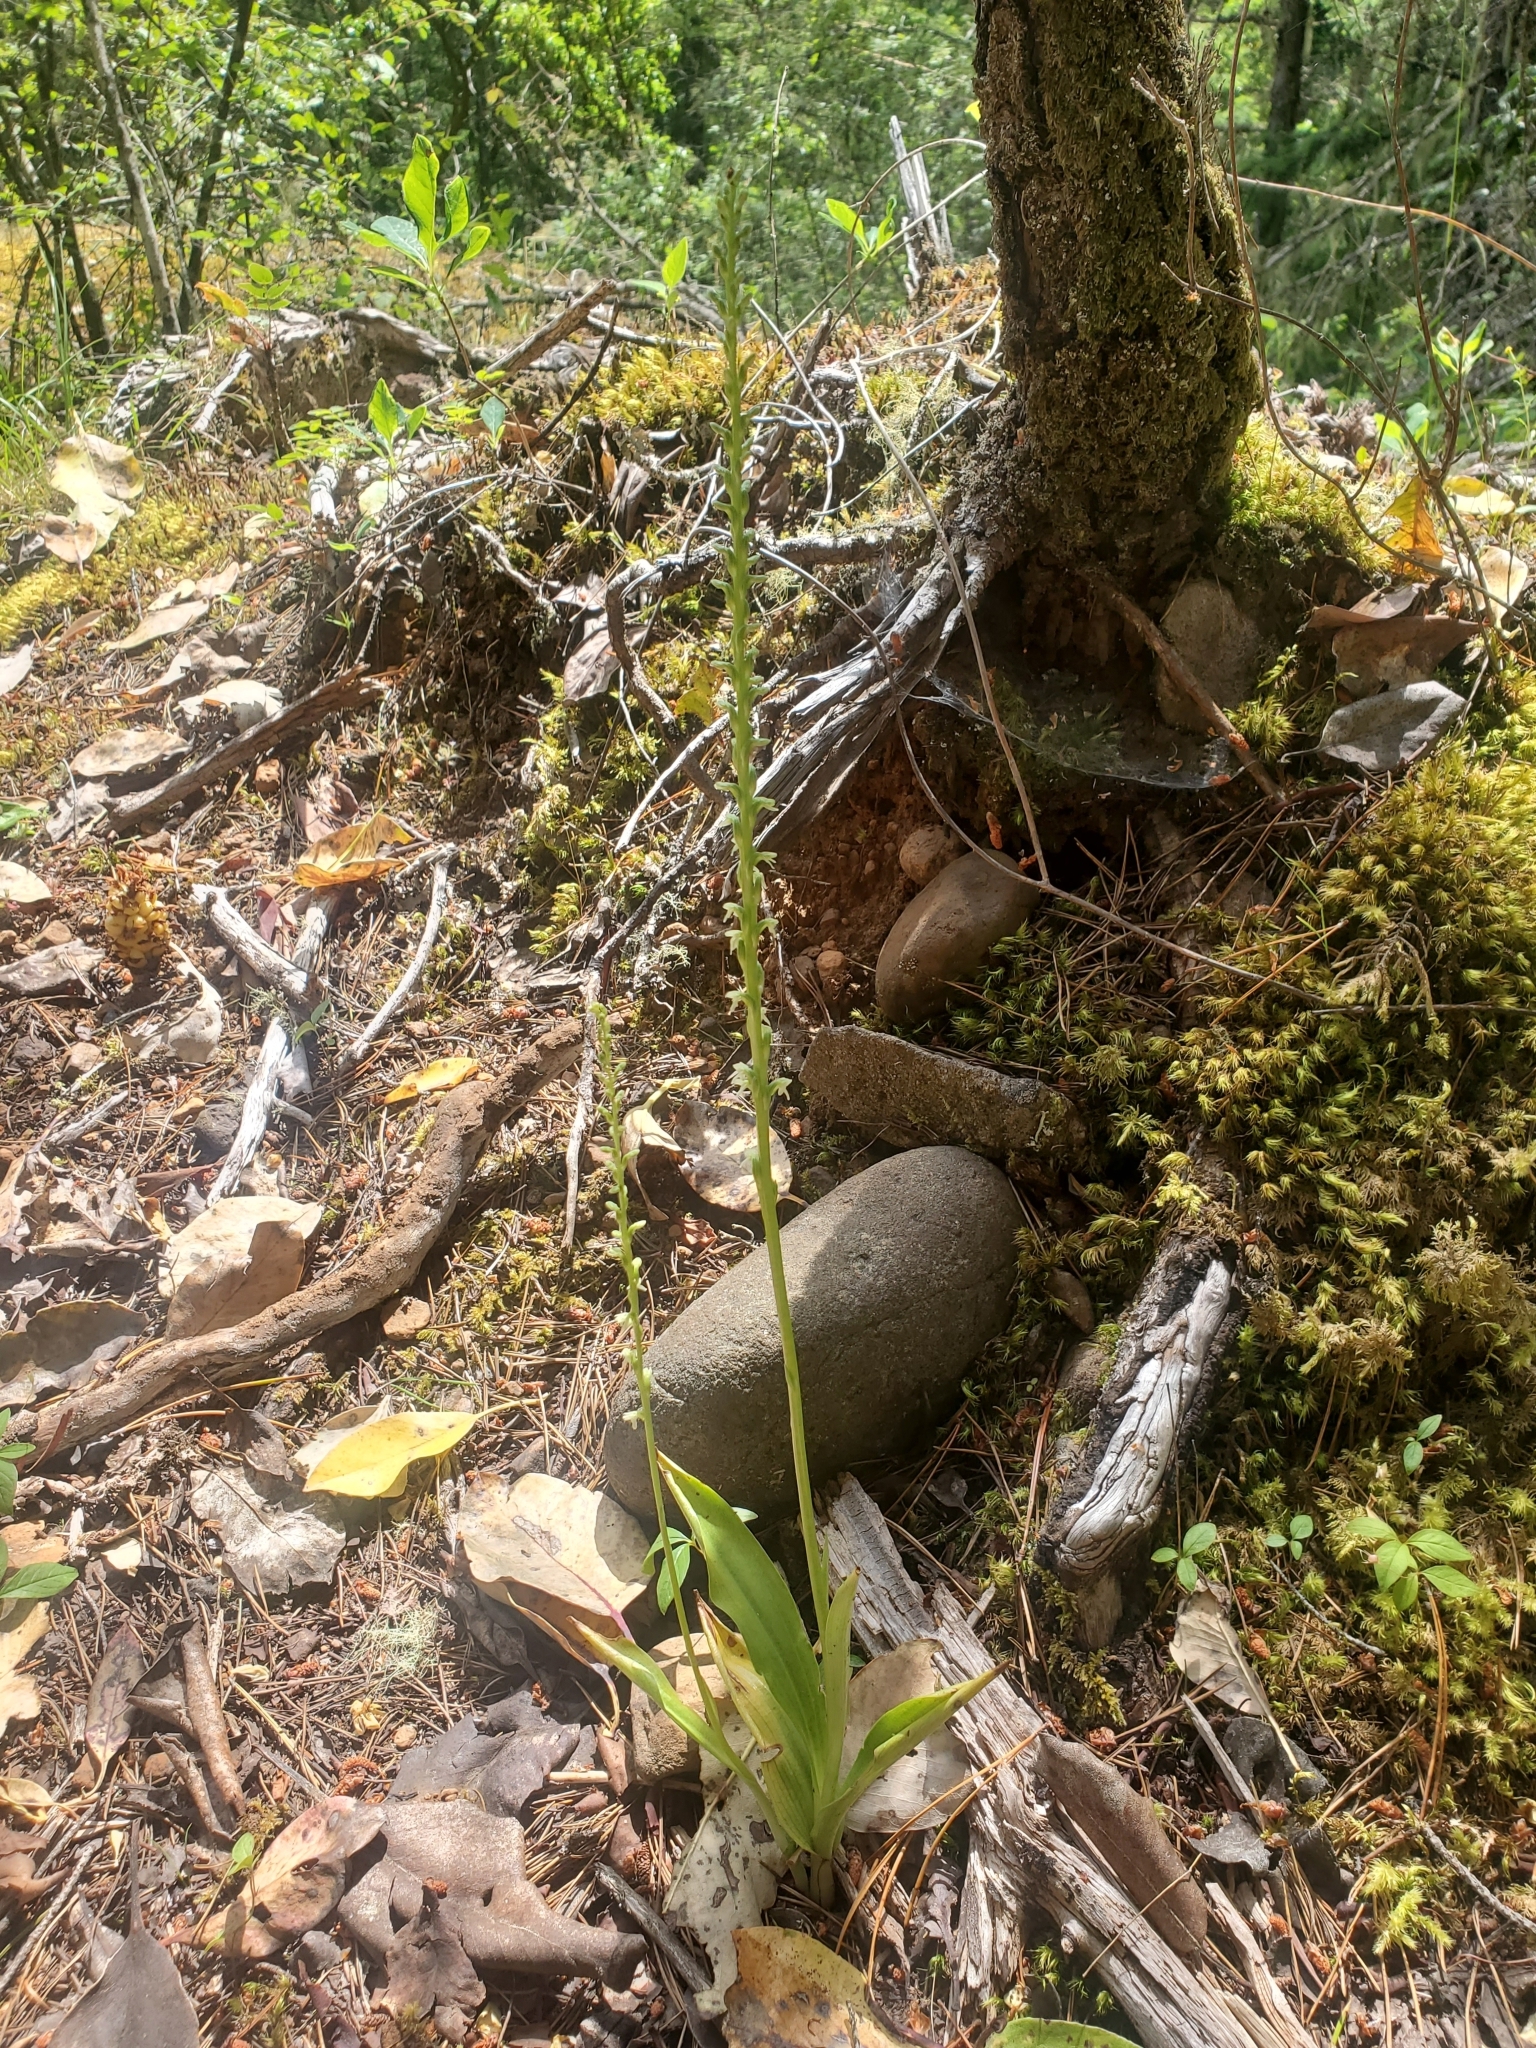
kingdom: Plantae
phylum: Tracheophyta
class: Liliopsida
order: Asparagales
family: Orchidaceae
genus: Platanthera
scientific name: Platanthera ephemerantha
